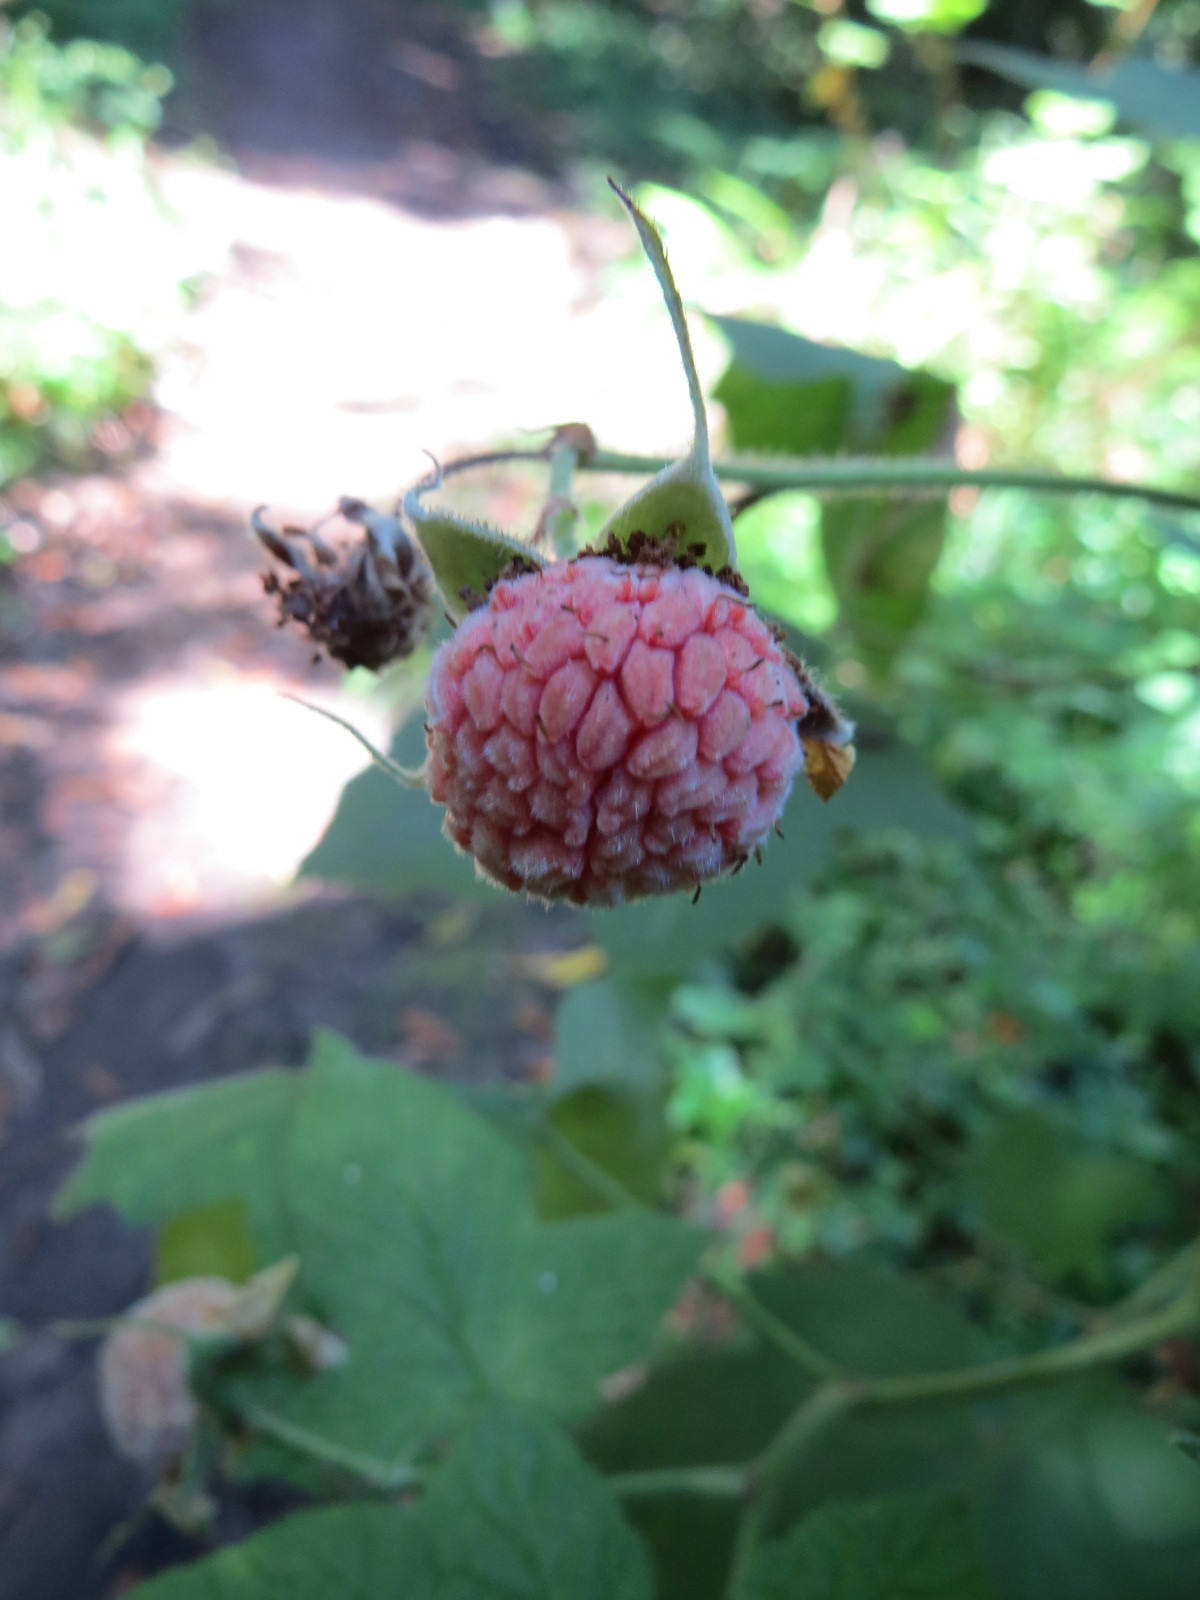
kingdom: Plantae
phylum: Tracheophyta
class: Magnoliopsida
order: Rosales
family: Rosaceae
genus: Rubus
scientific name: Rubus parviflorus
